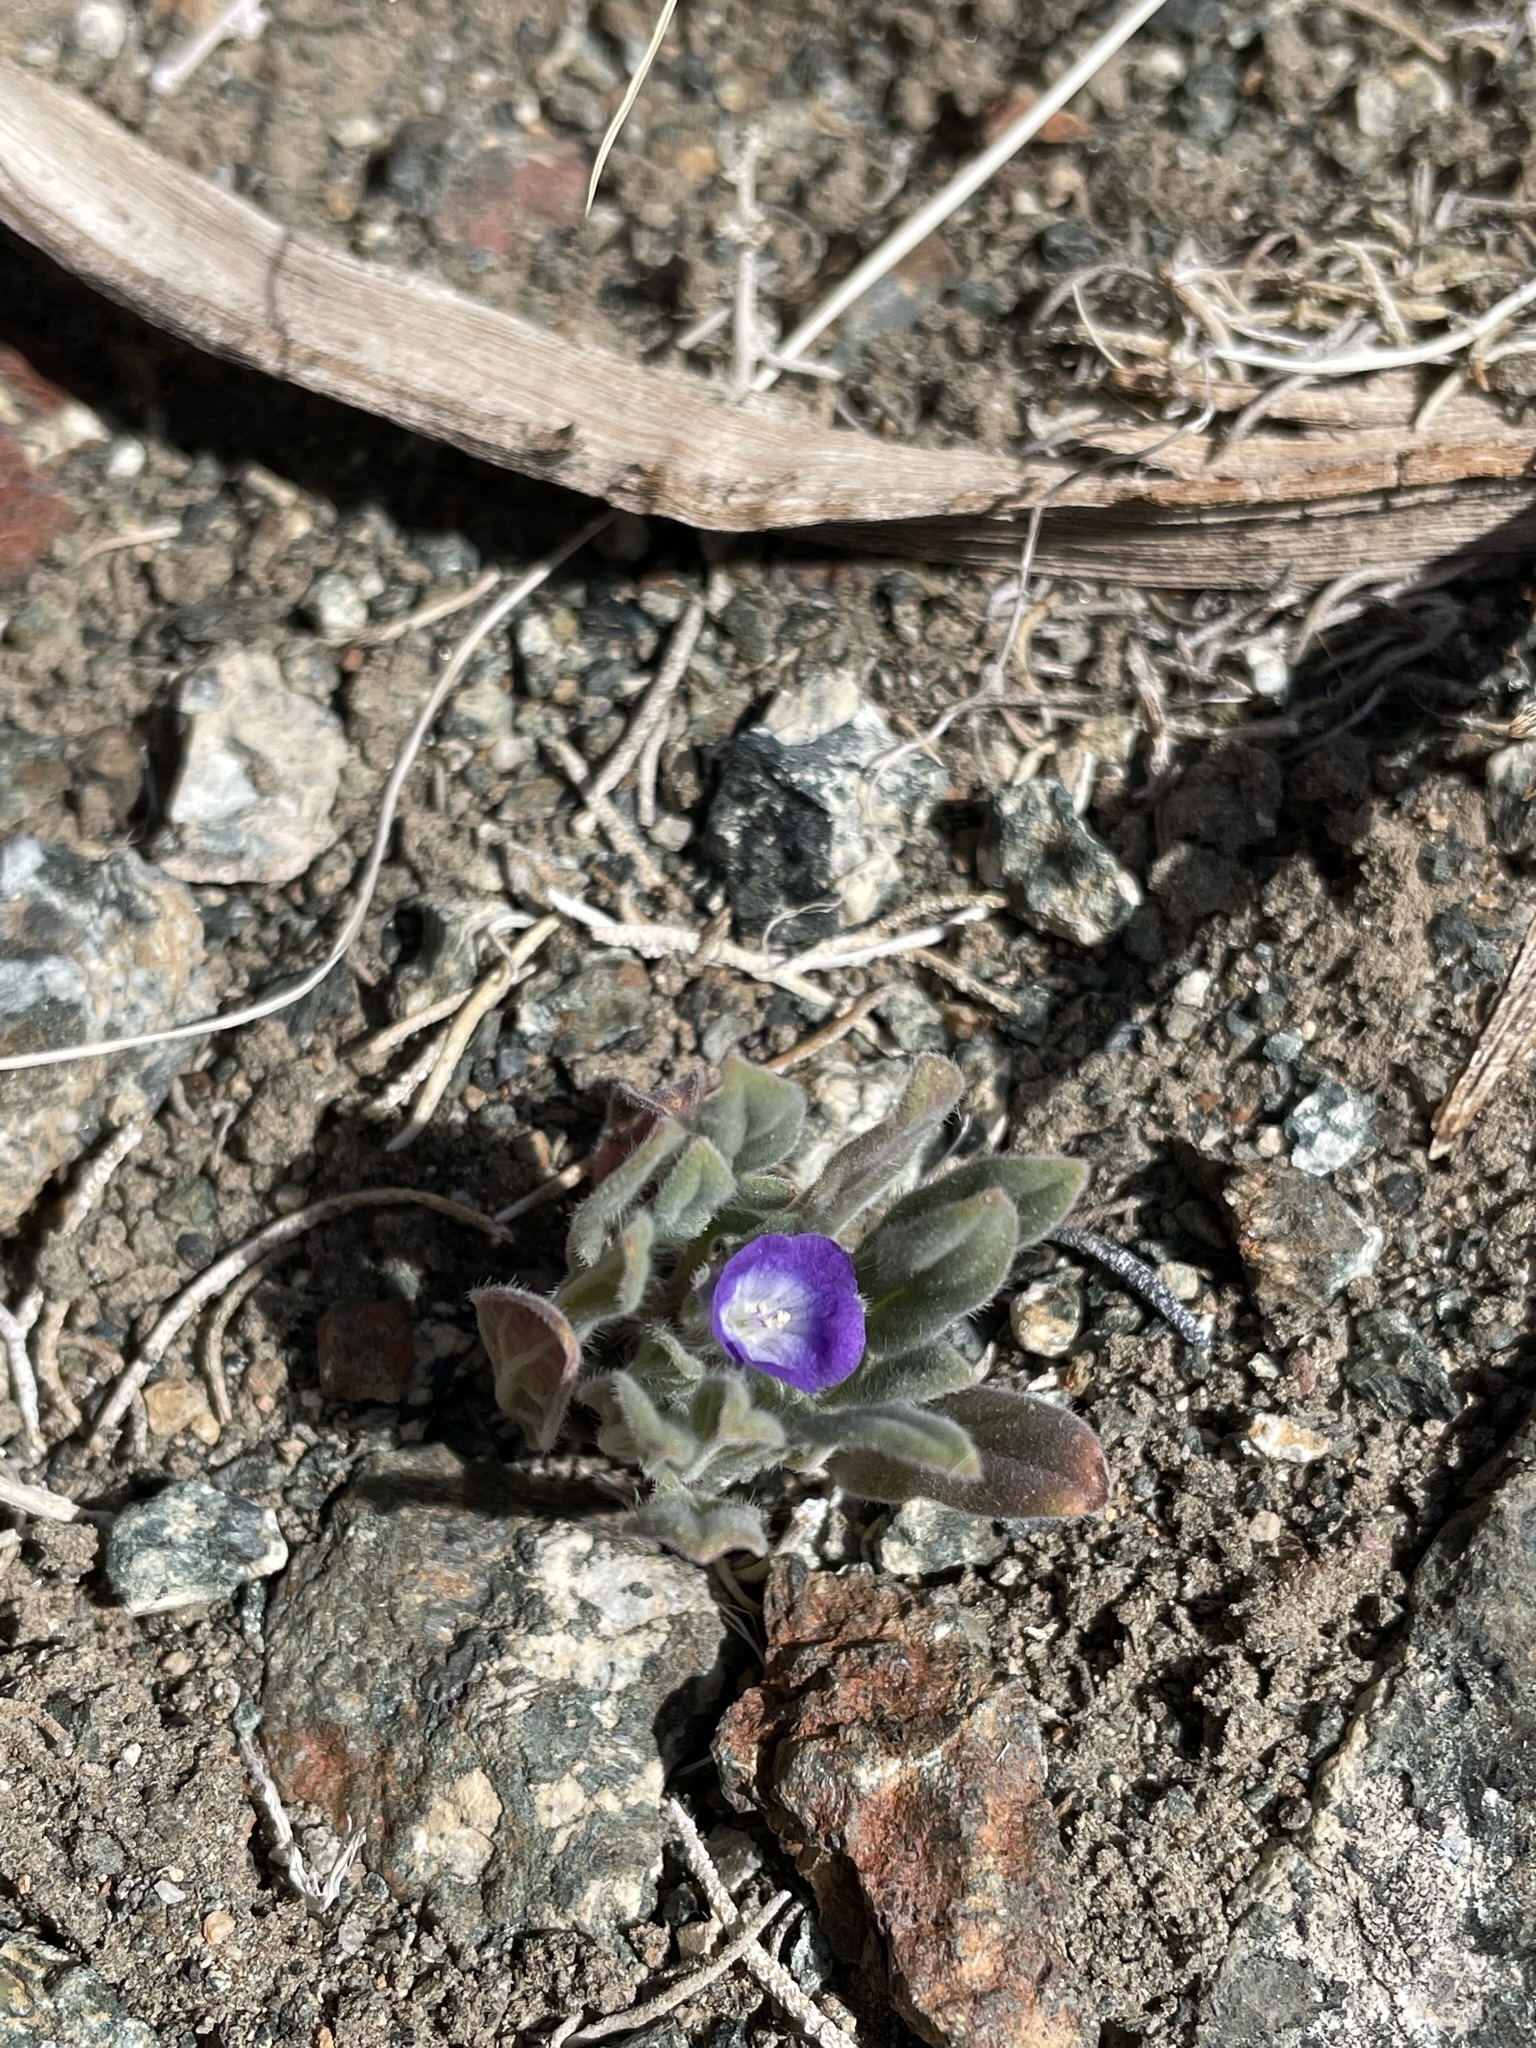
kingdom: Plantae
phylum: Tracheophyta
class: Magnoliopsida
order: Boraginales
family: Hydrophyllaceae
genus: Phacelia
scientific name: Phacelia curvipes
